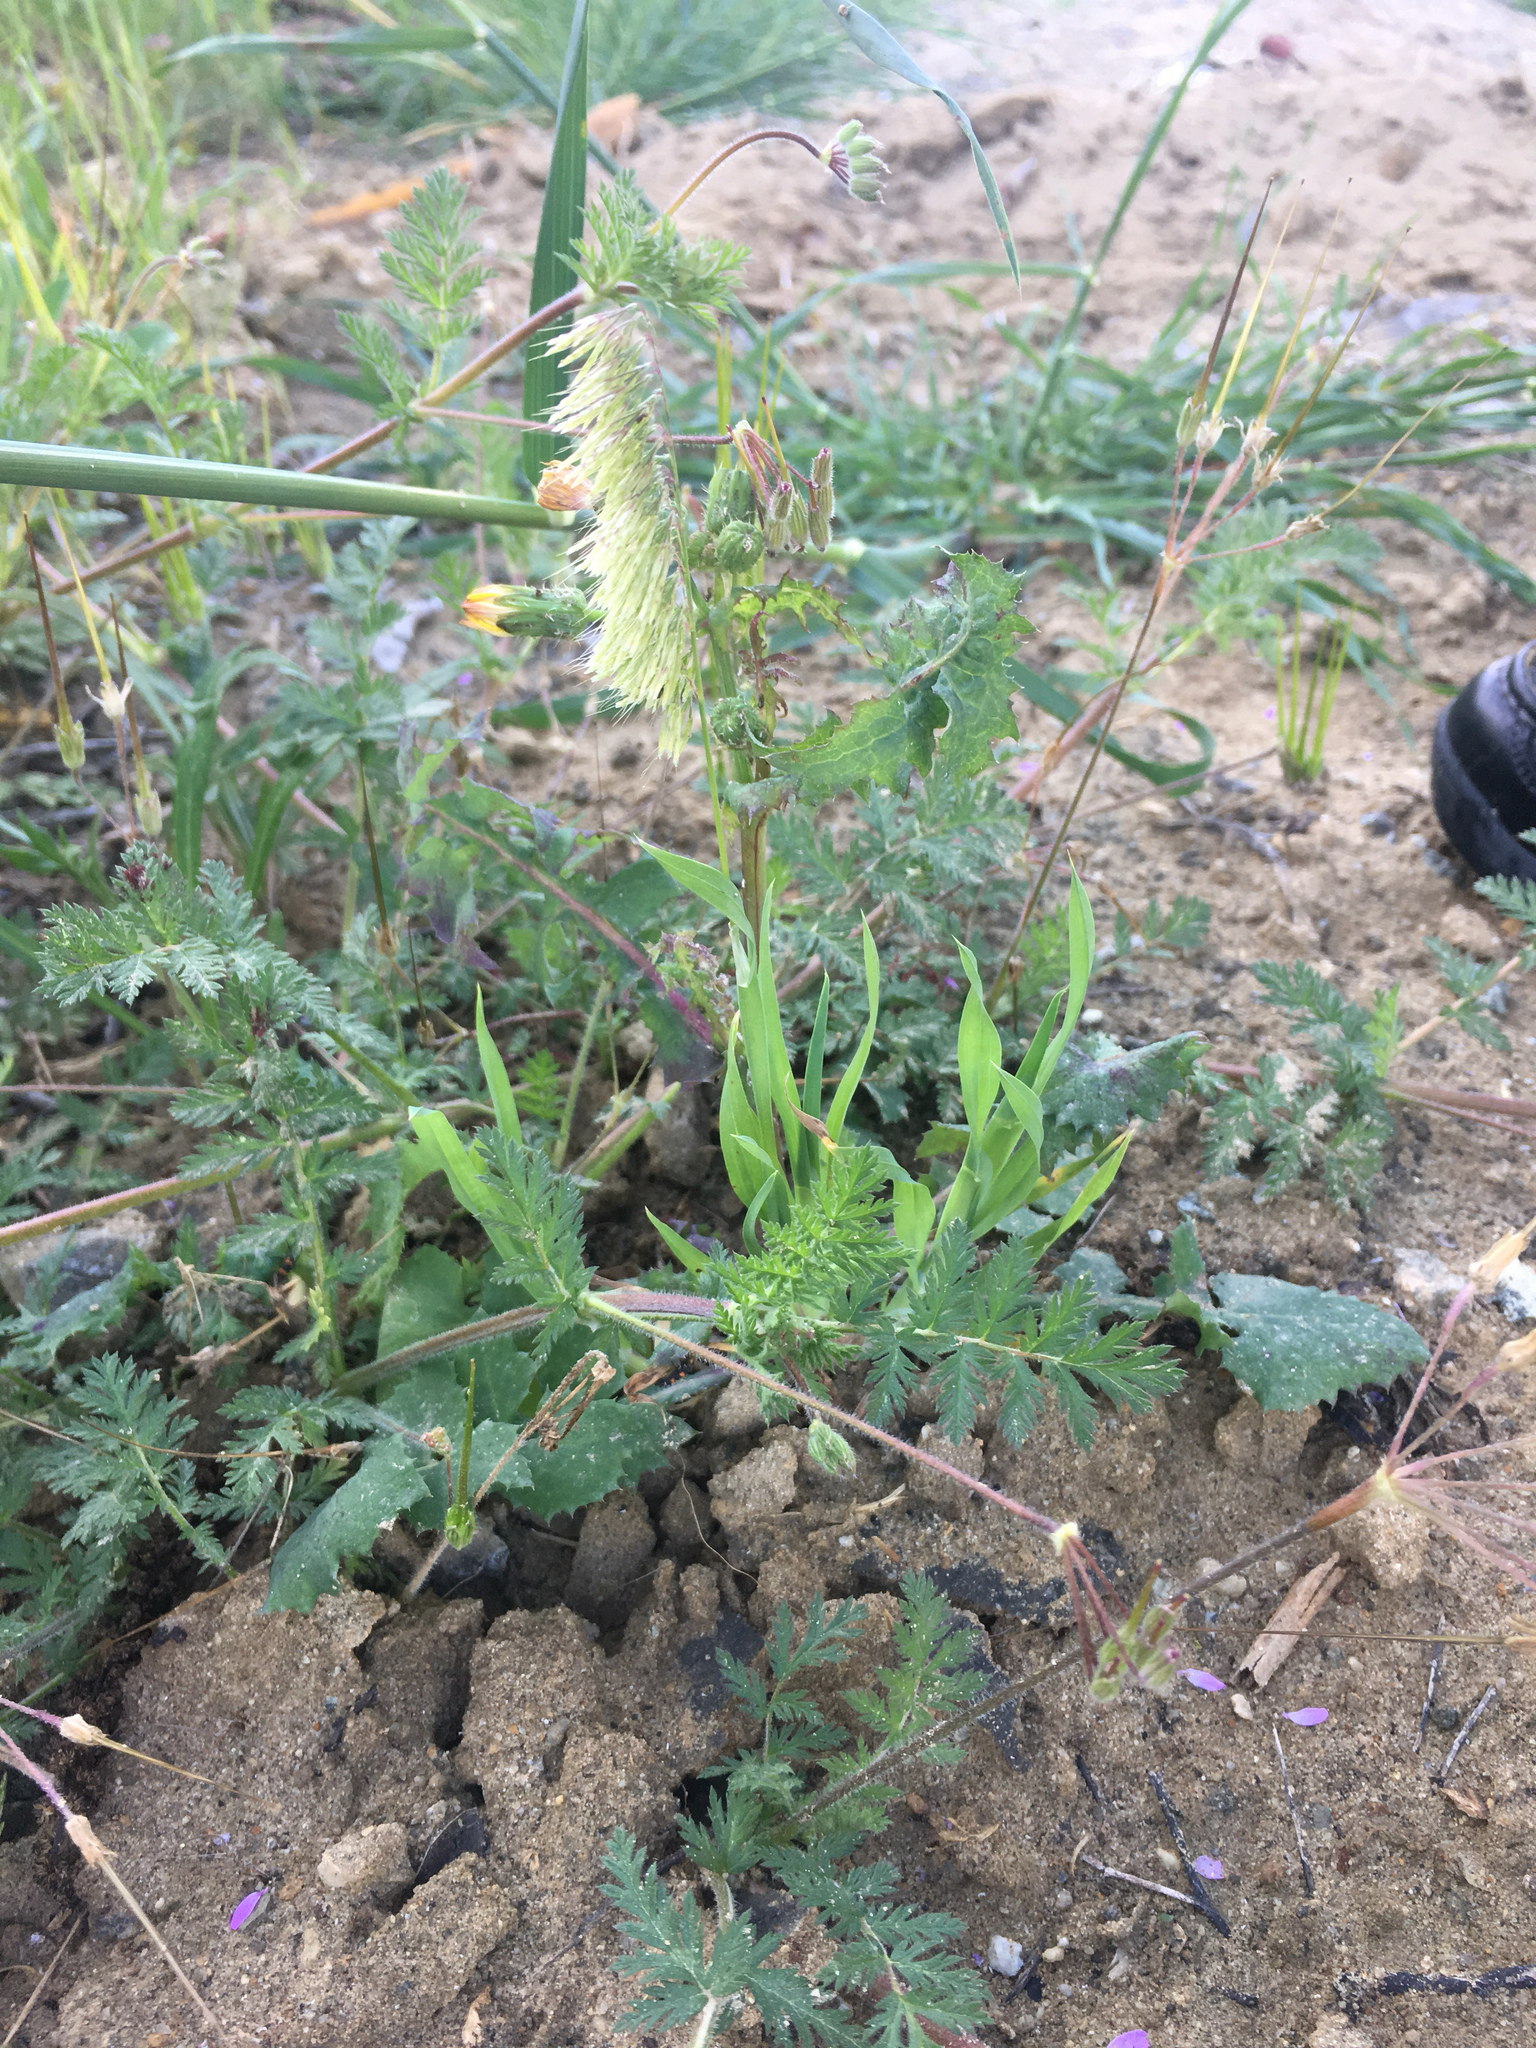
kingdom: Plantae
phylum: Tracheophyta
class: Liliopsida
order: Poales
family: Poaceae
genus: Lamarckia
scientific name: Lamarckia aurea
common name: Golden dog's-tail
